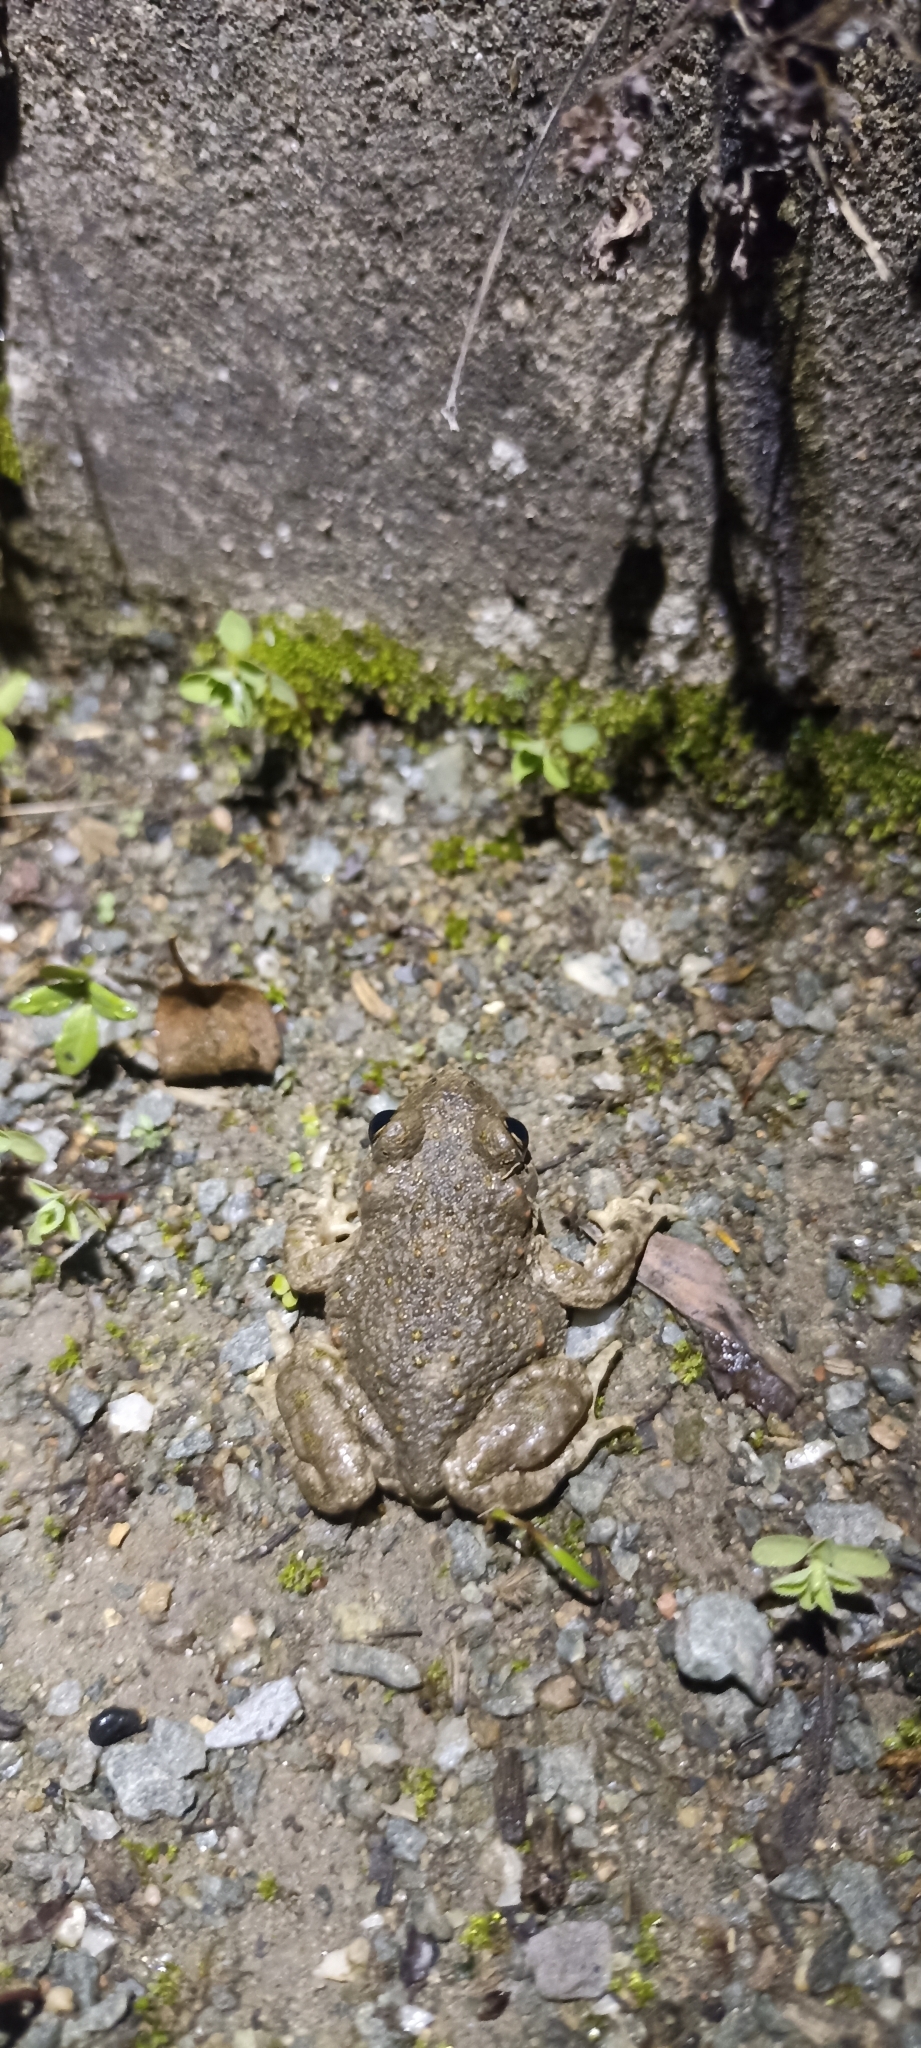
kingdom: Animalia
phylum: Chordata
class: Amphibia
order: Anura
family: Alytidae
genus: Alytes
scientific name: Alytes obstetricans
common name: Midwife toad
